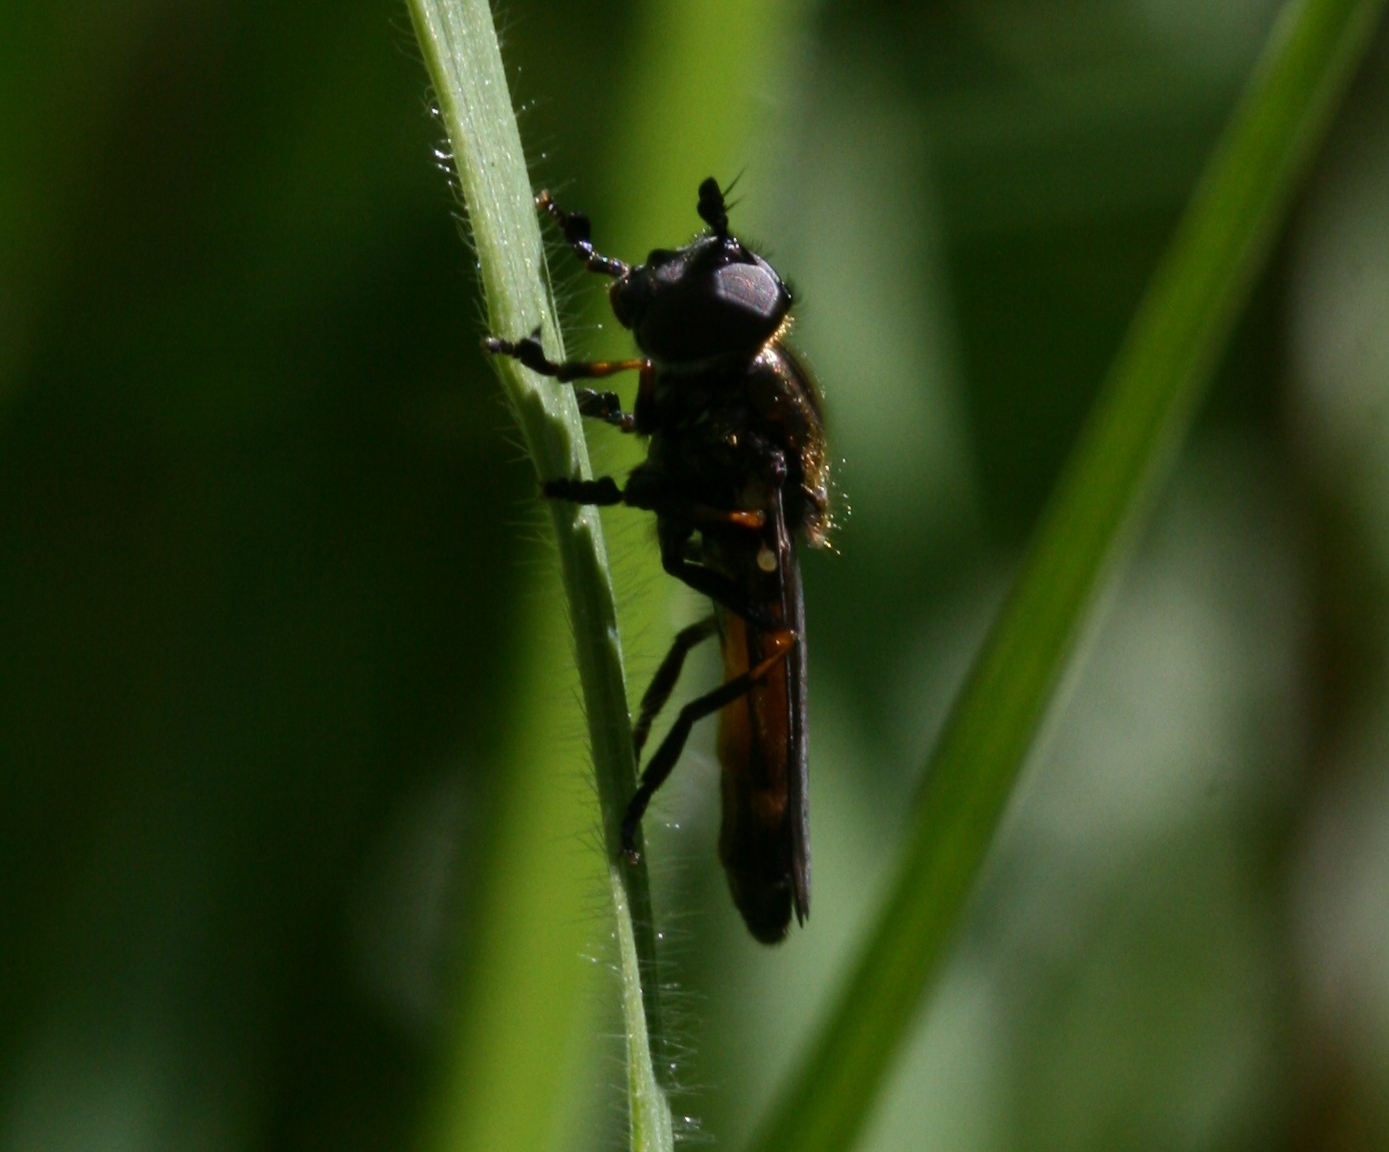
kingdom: Animalia
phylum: Arthropoda
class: Insecta
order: Diptera
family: Syrphidae
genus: Pyrophaena
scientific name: Pyrophaena granditarsa
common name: Hornhand sedgesitter
